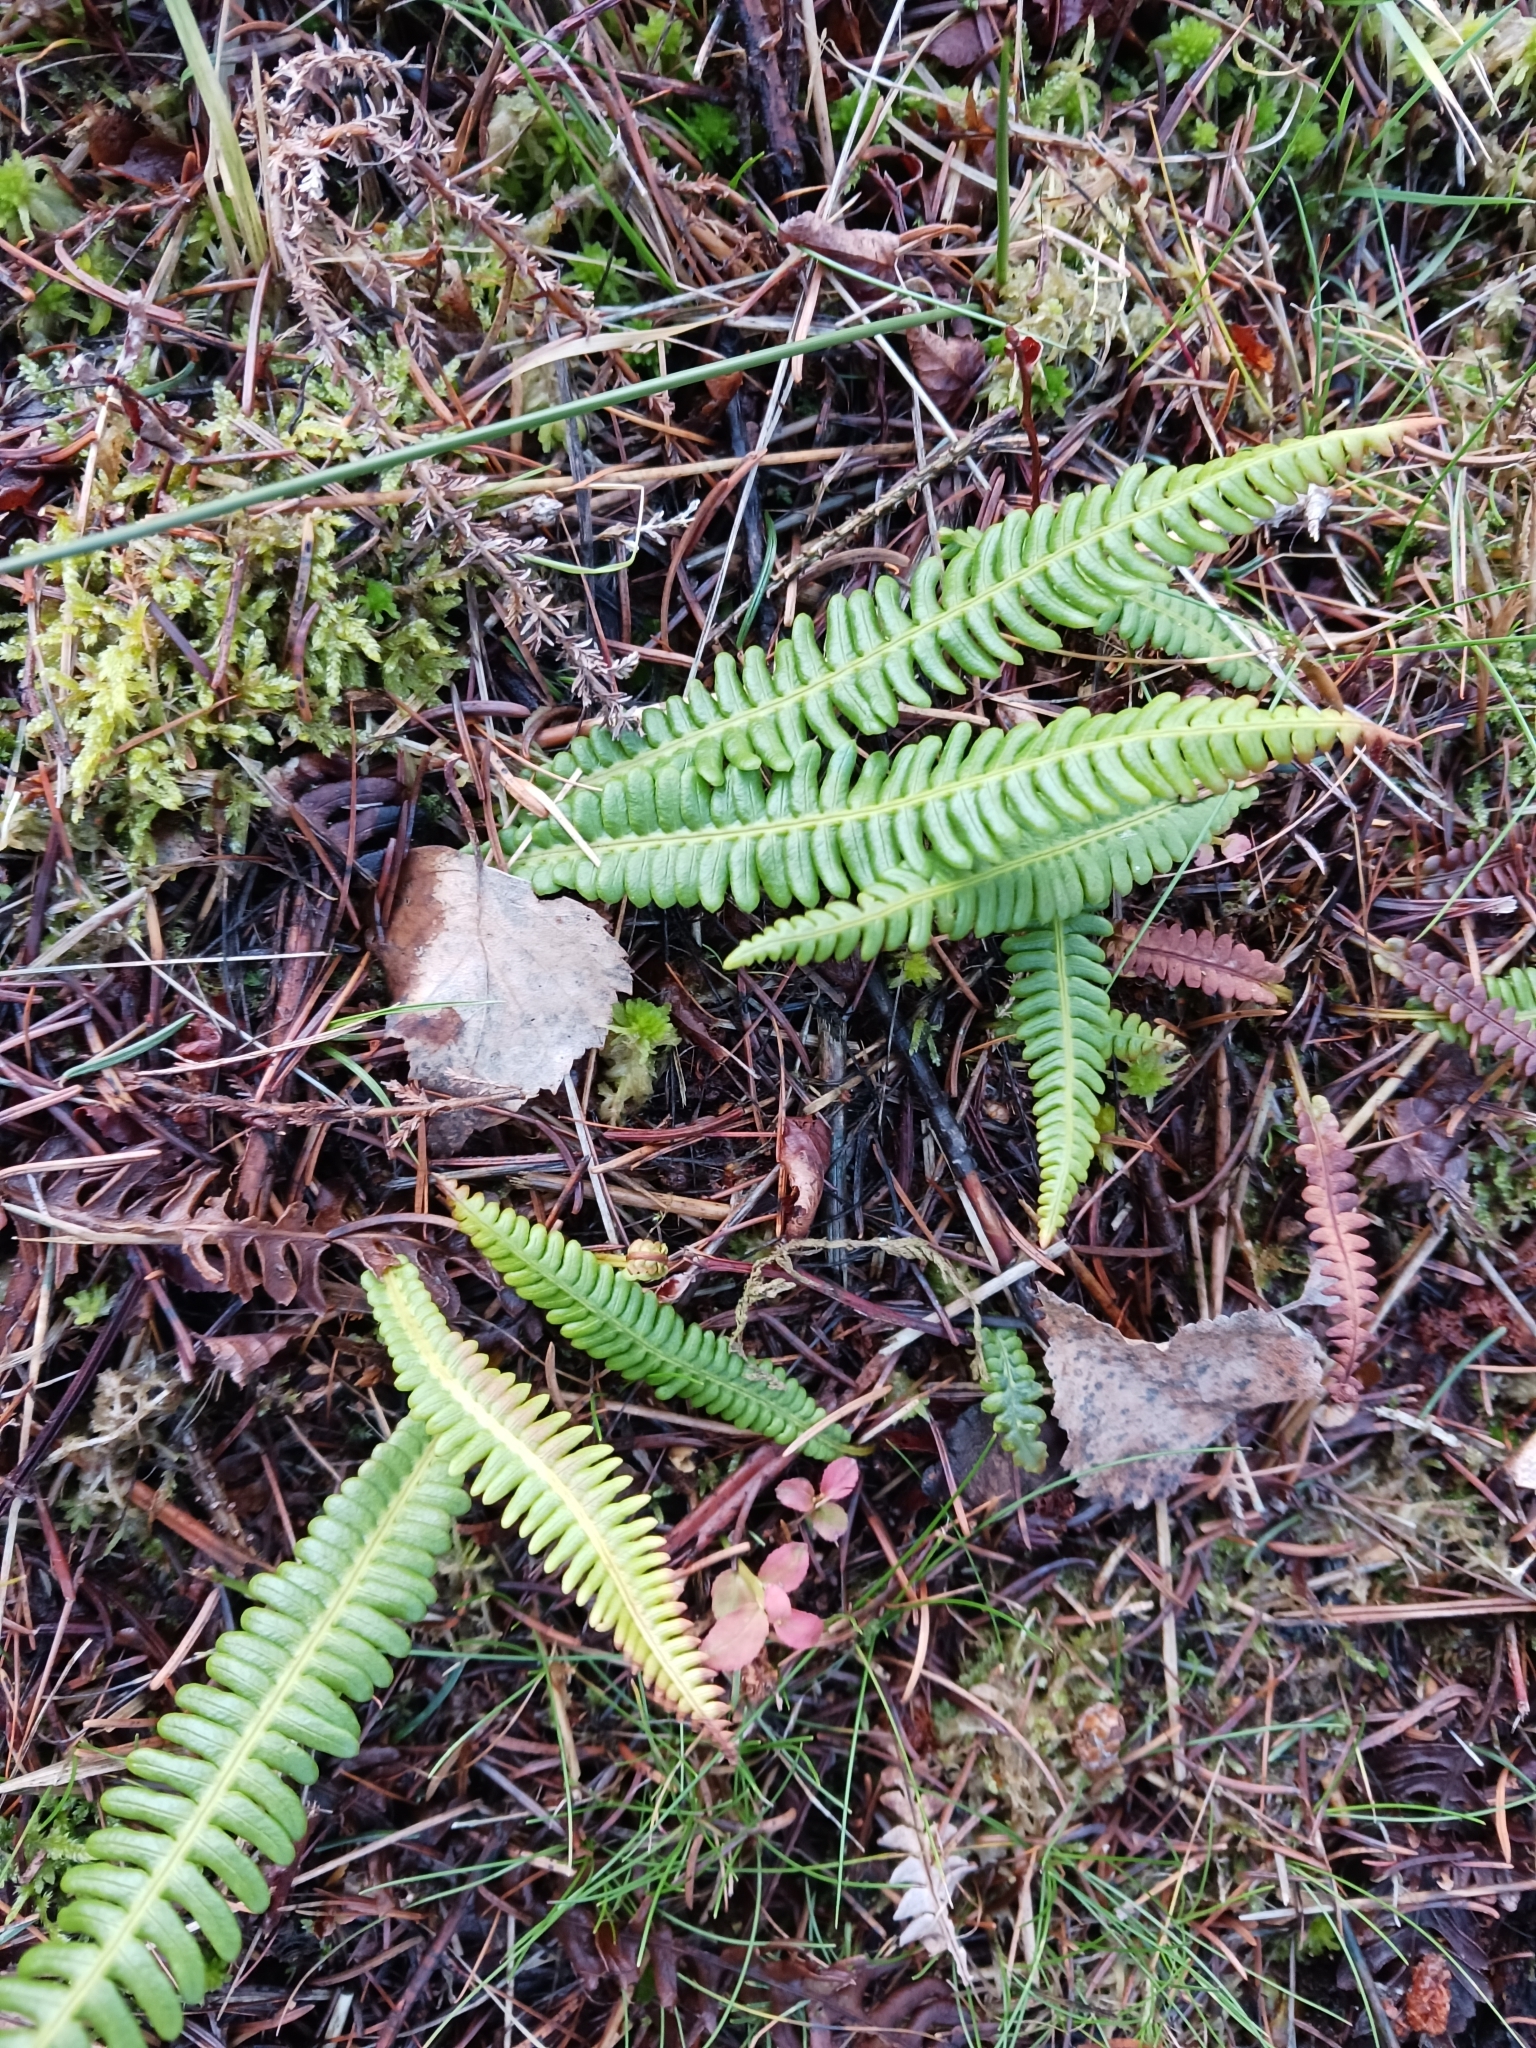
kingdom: Plantae
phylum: Tracheophyta
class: Polypodiopsida
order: Polypodiales
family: Blechnaceae
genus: Struthiopteris
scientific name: Struthiopteris spicant
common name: Deer fern
